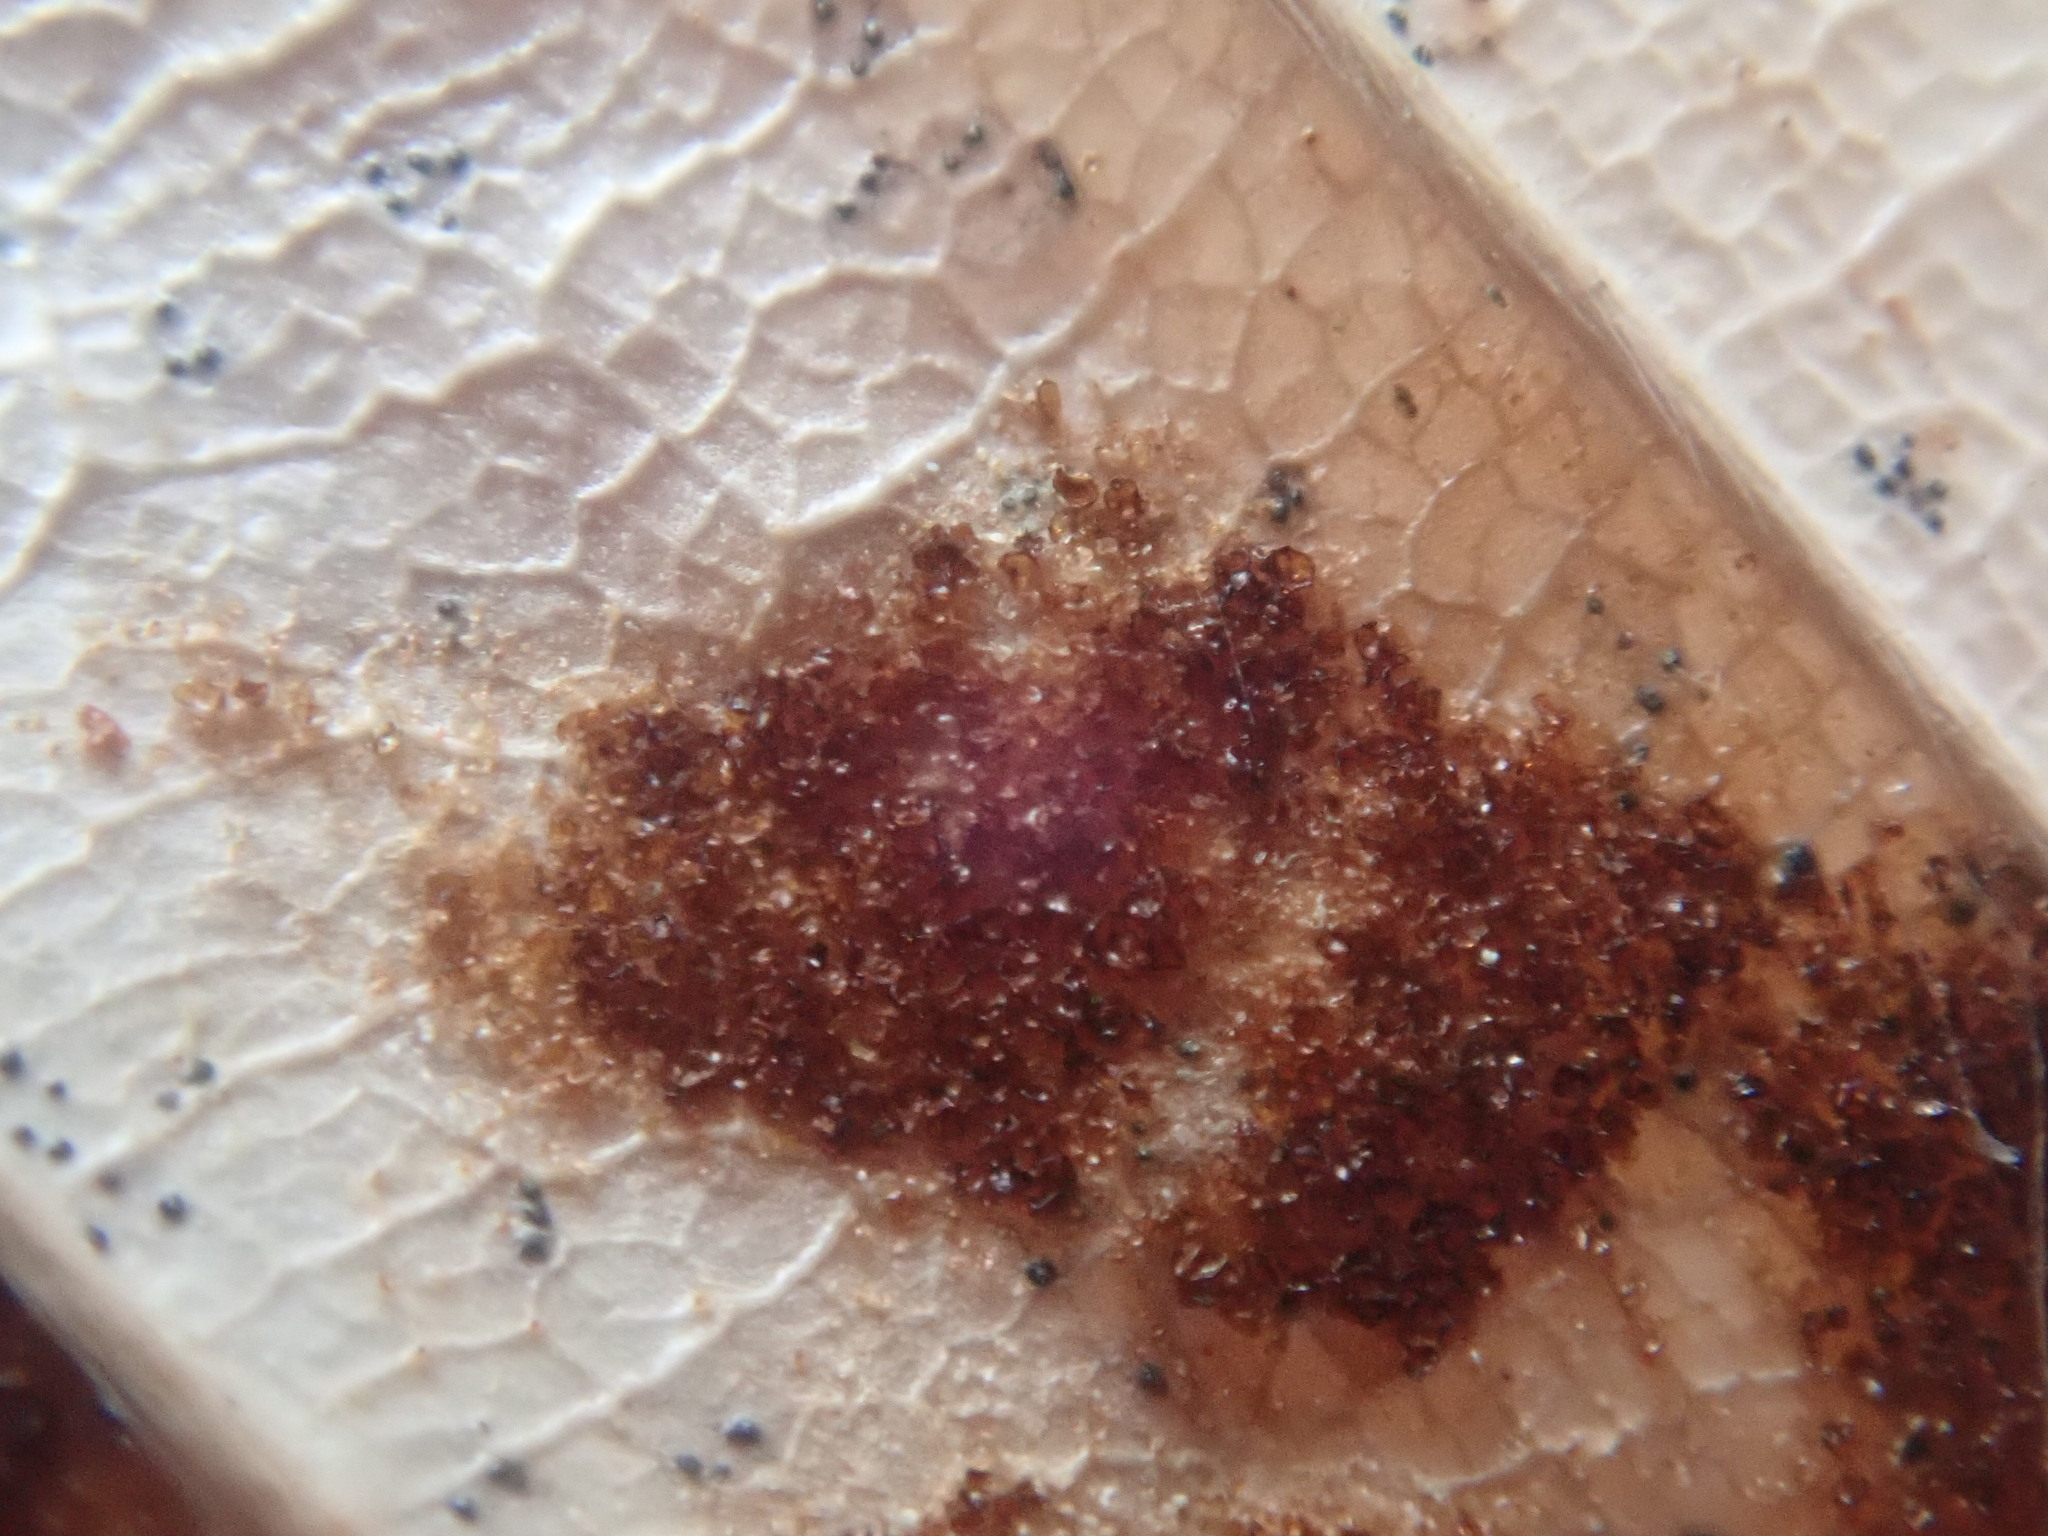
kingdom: Animalia
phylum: Arthropoda
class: Arachnida
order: Trombidiformes
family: Eriophyidae
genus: Acalitus
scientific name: Acalitus
